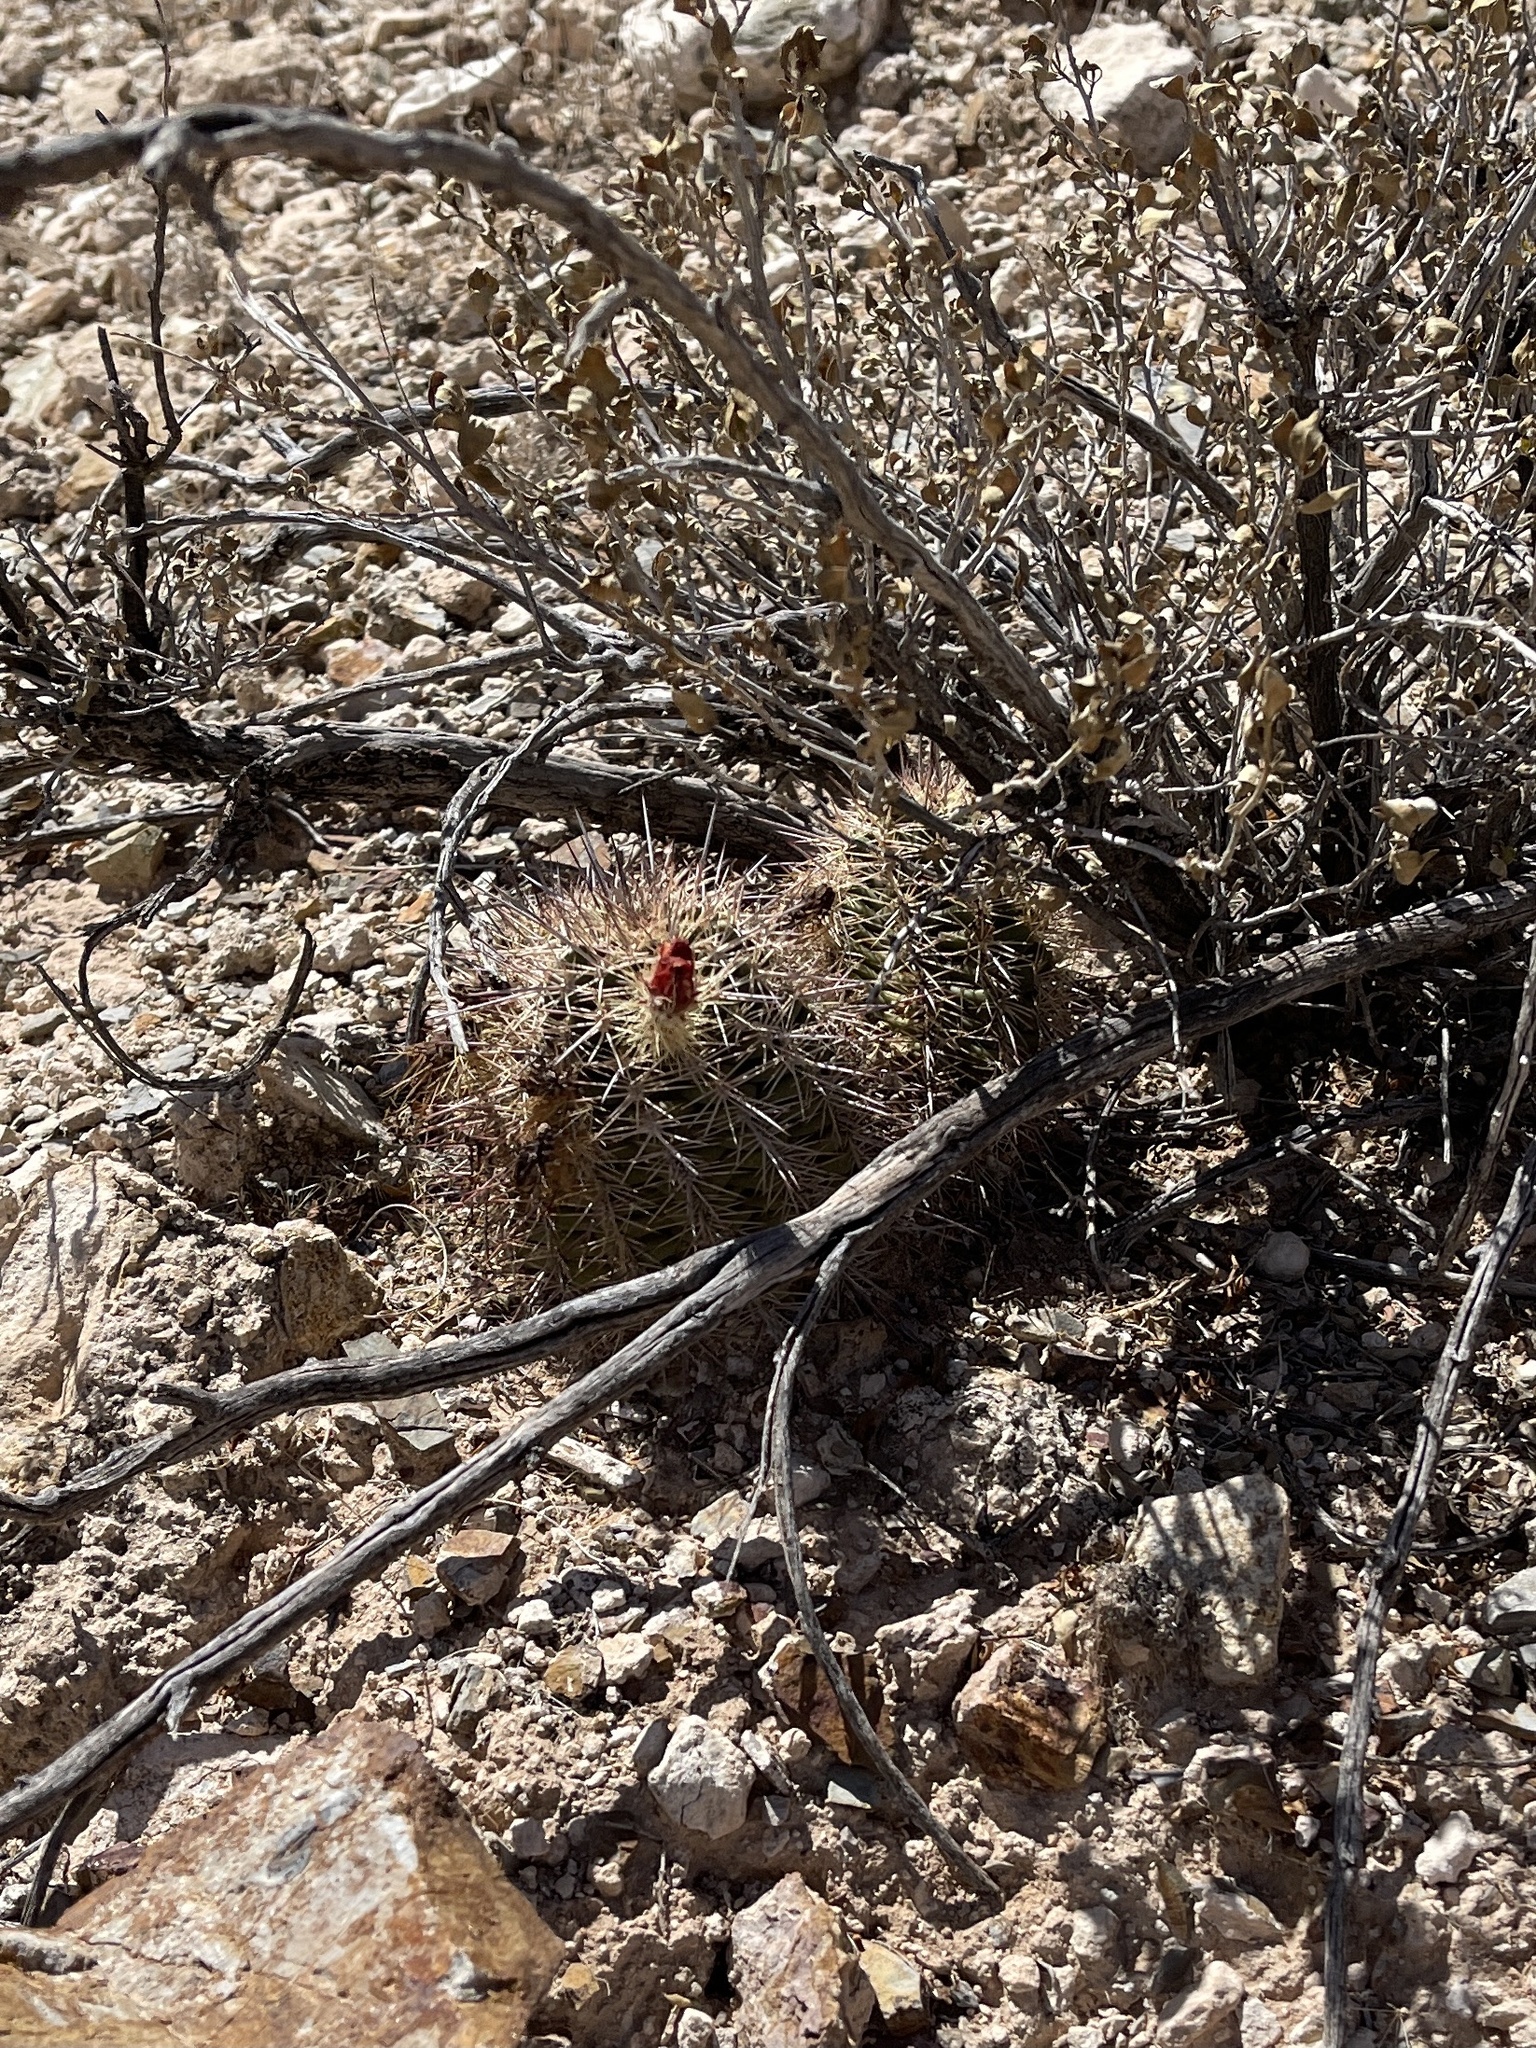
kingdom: Plantae
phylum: Tracheophyta
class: Magnoliopsida
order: Caryophyllales
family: Cactaceae
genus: Echinocereus
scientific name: Echinocereus coccineus
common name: Scarlet hedgehog cactus
